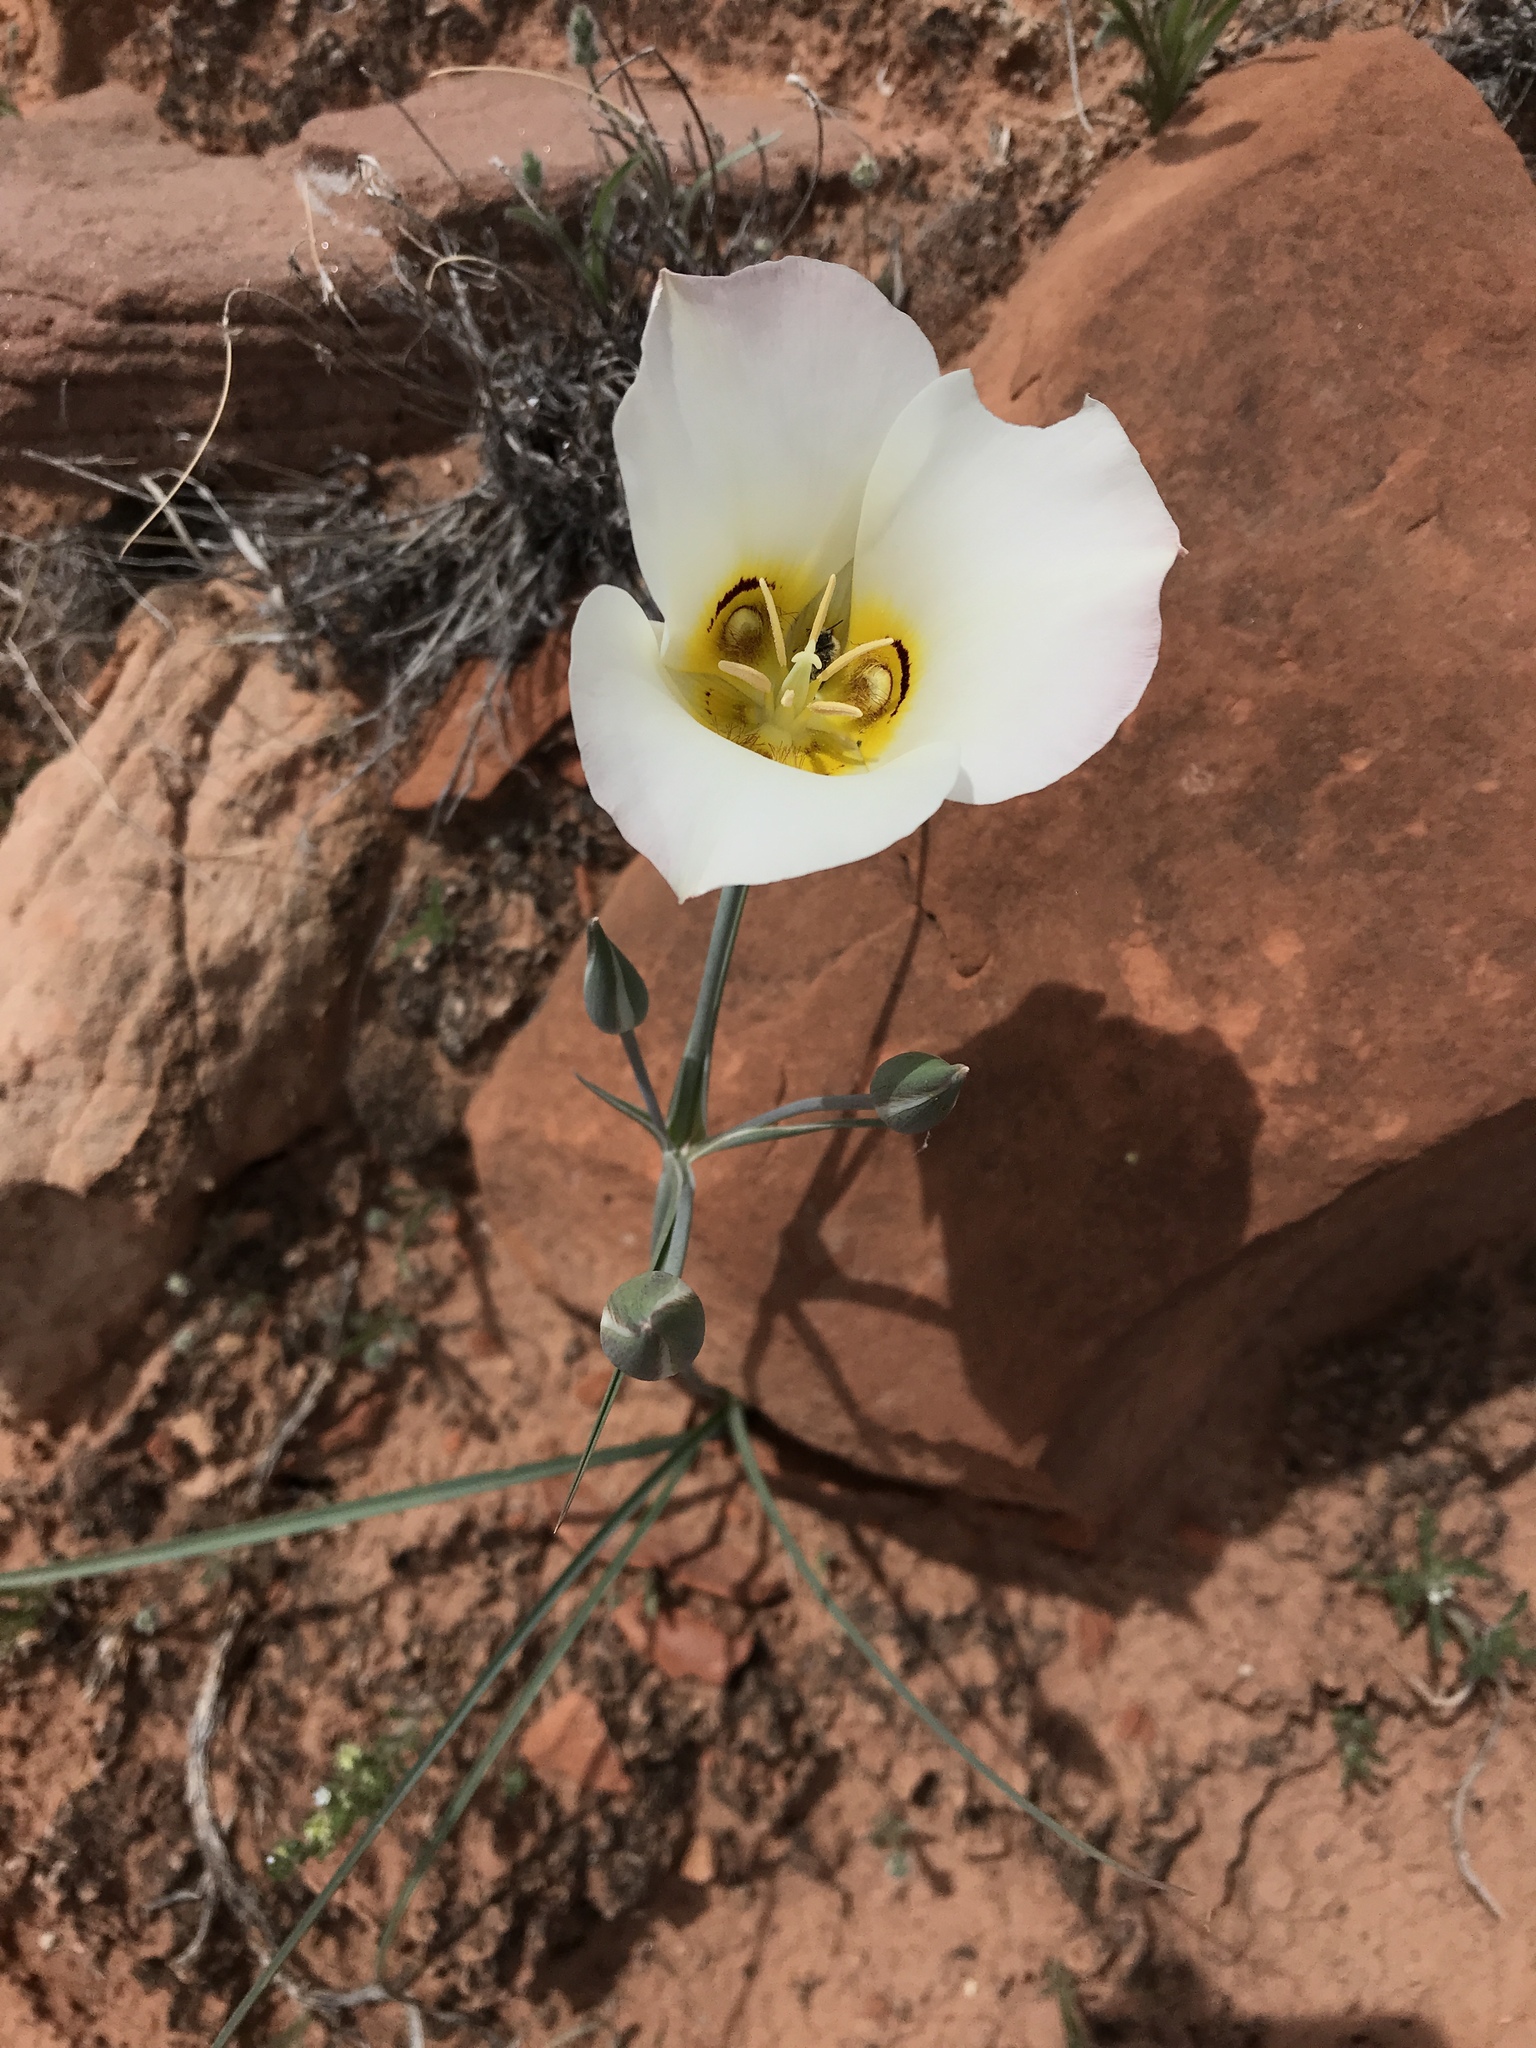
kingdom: Plantae
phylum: Tracheophyta
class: Liliopsida
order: Liliales
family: Liliaceae
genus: Calochortus
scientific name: Calochortus nuttallii
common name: Sego-lily
